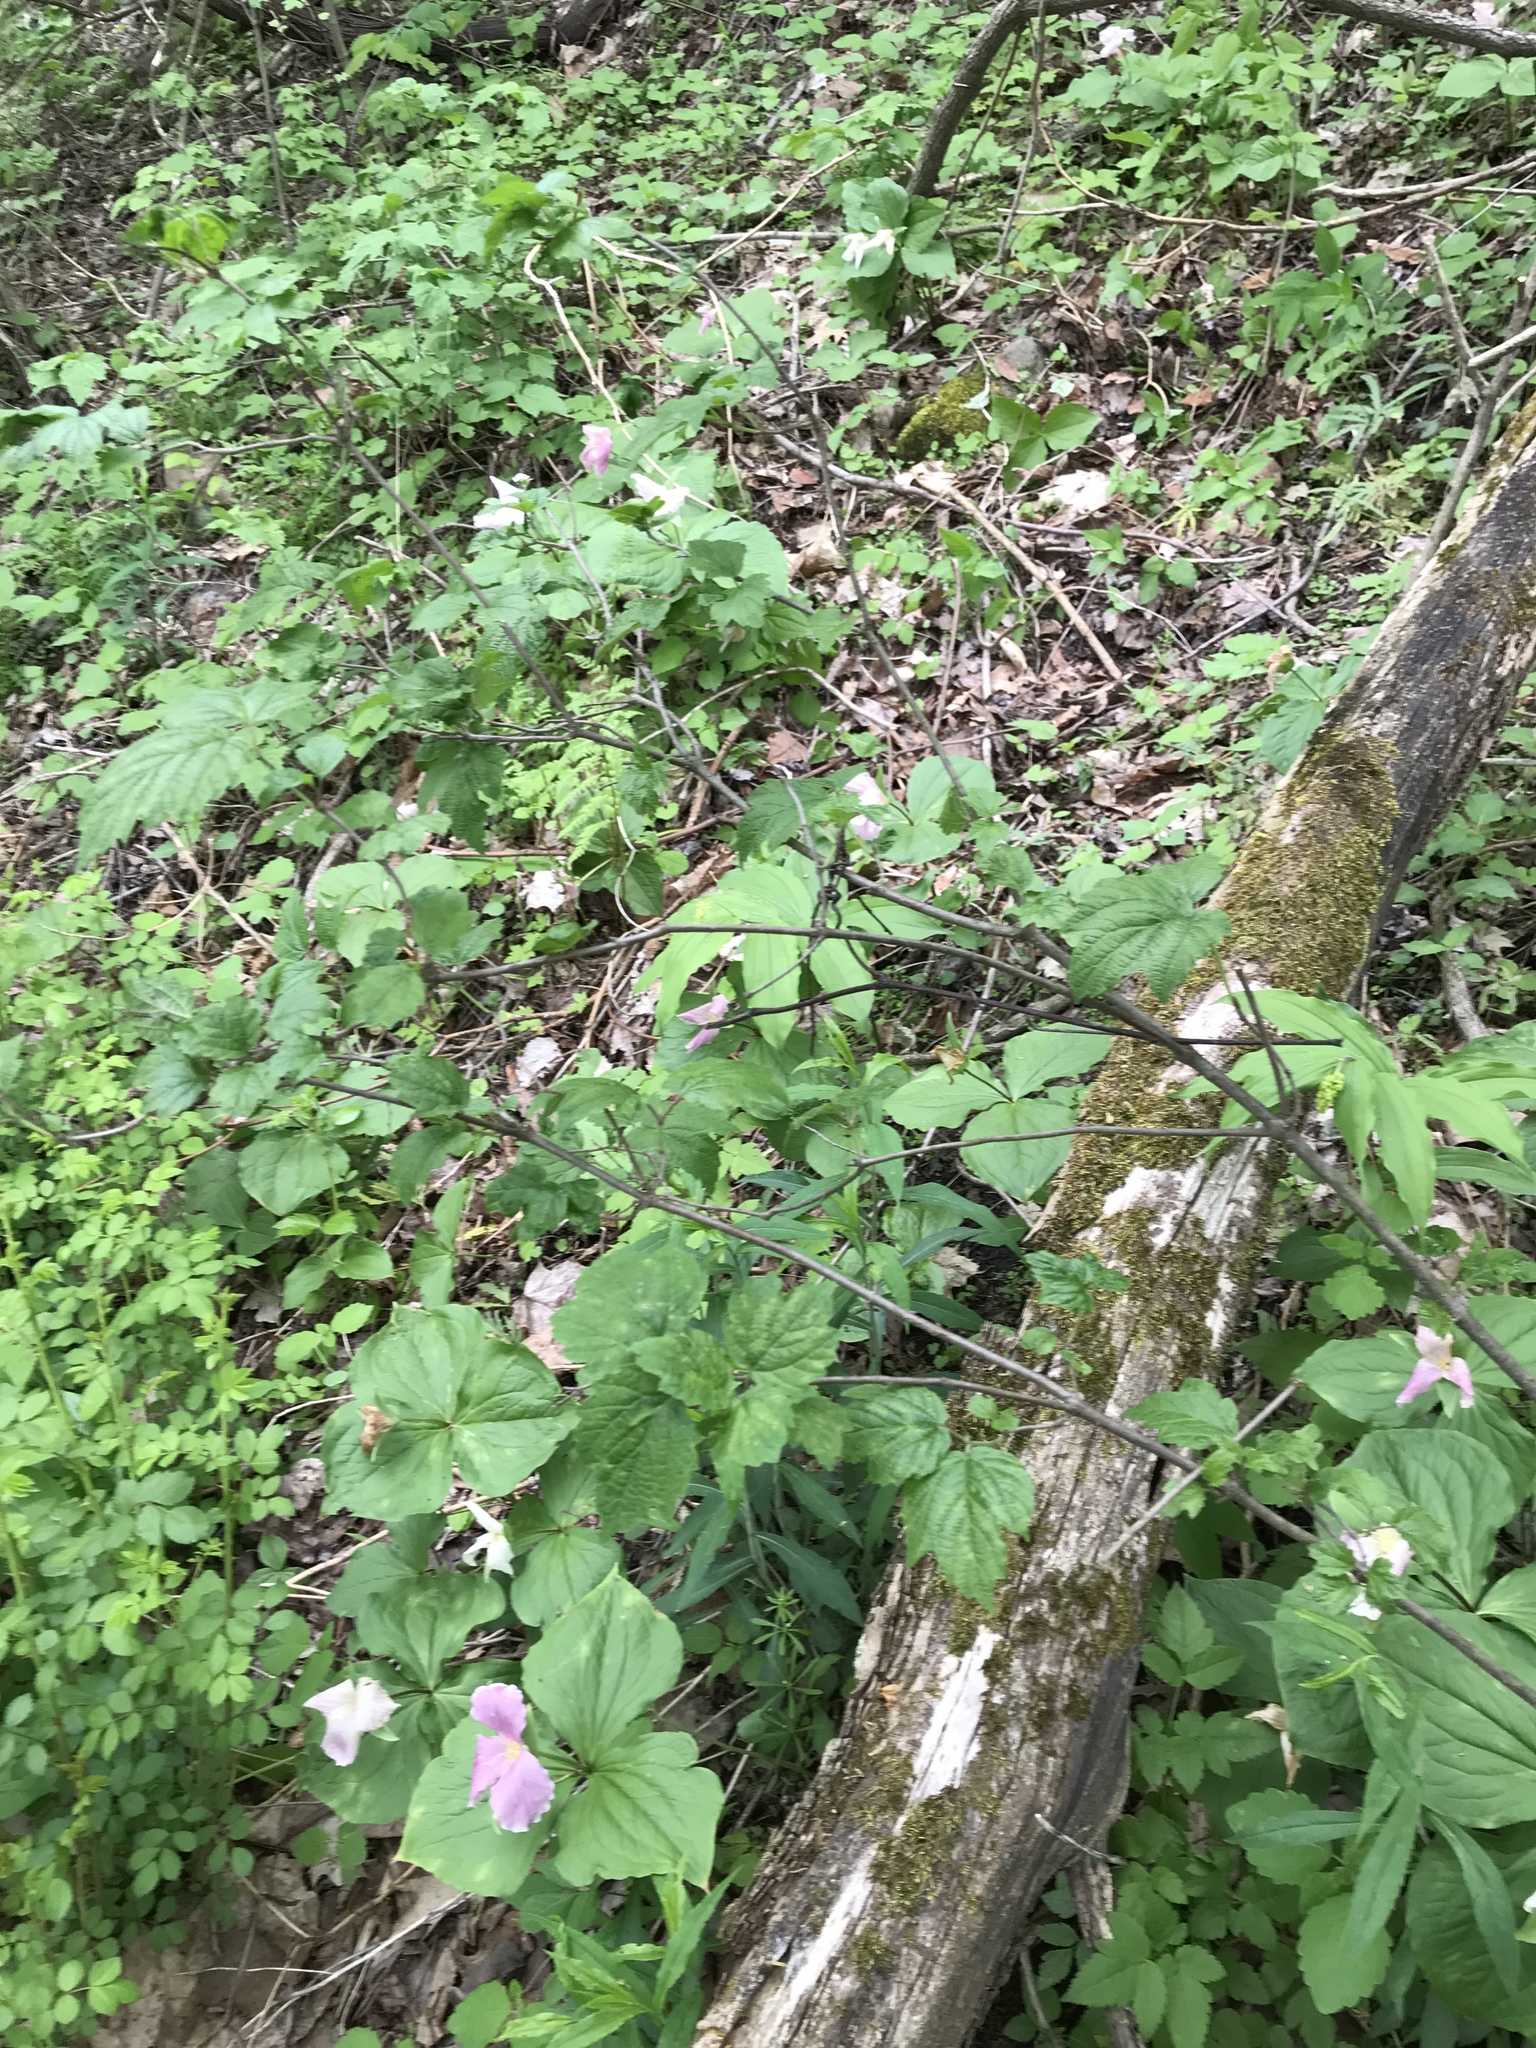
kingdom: Plantae
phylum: Tracheophyta
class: Magnoliopsida
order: Dipsacales
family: Viburnaceae
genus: Viburnum
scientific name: Viburnum acerifolium
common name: Dockmackie
